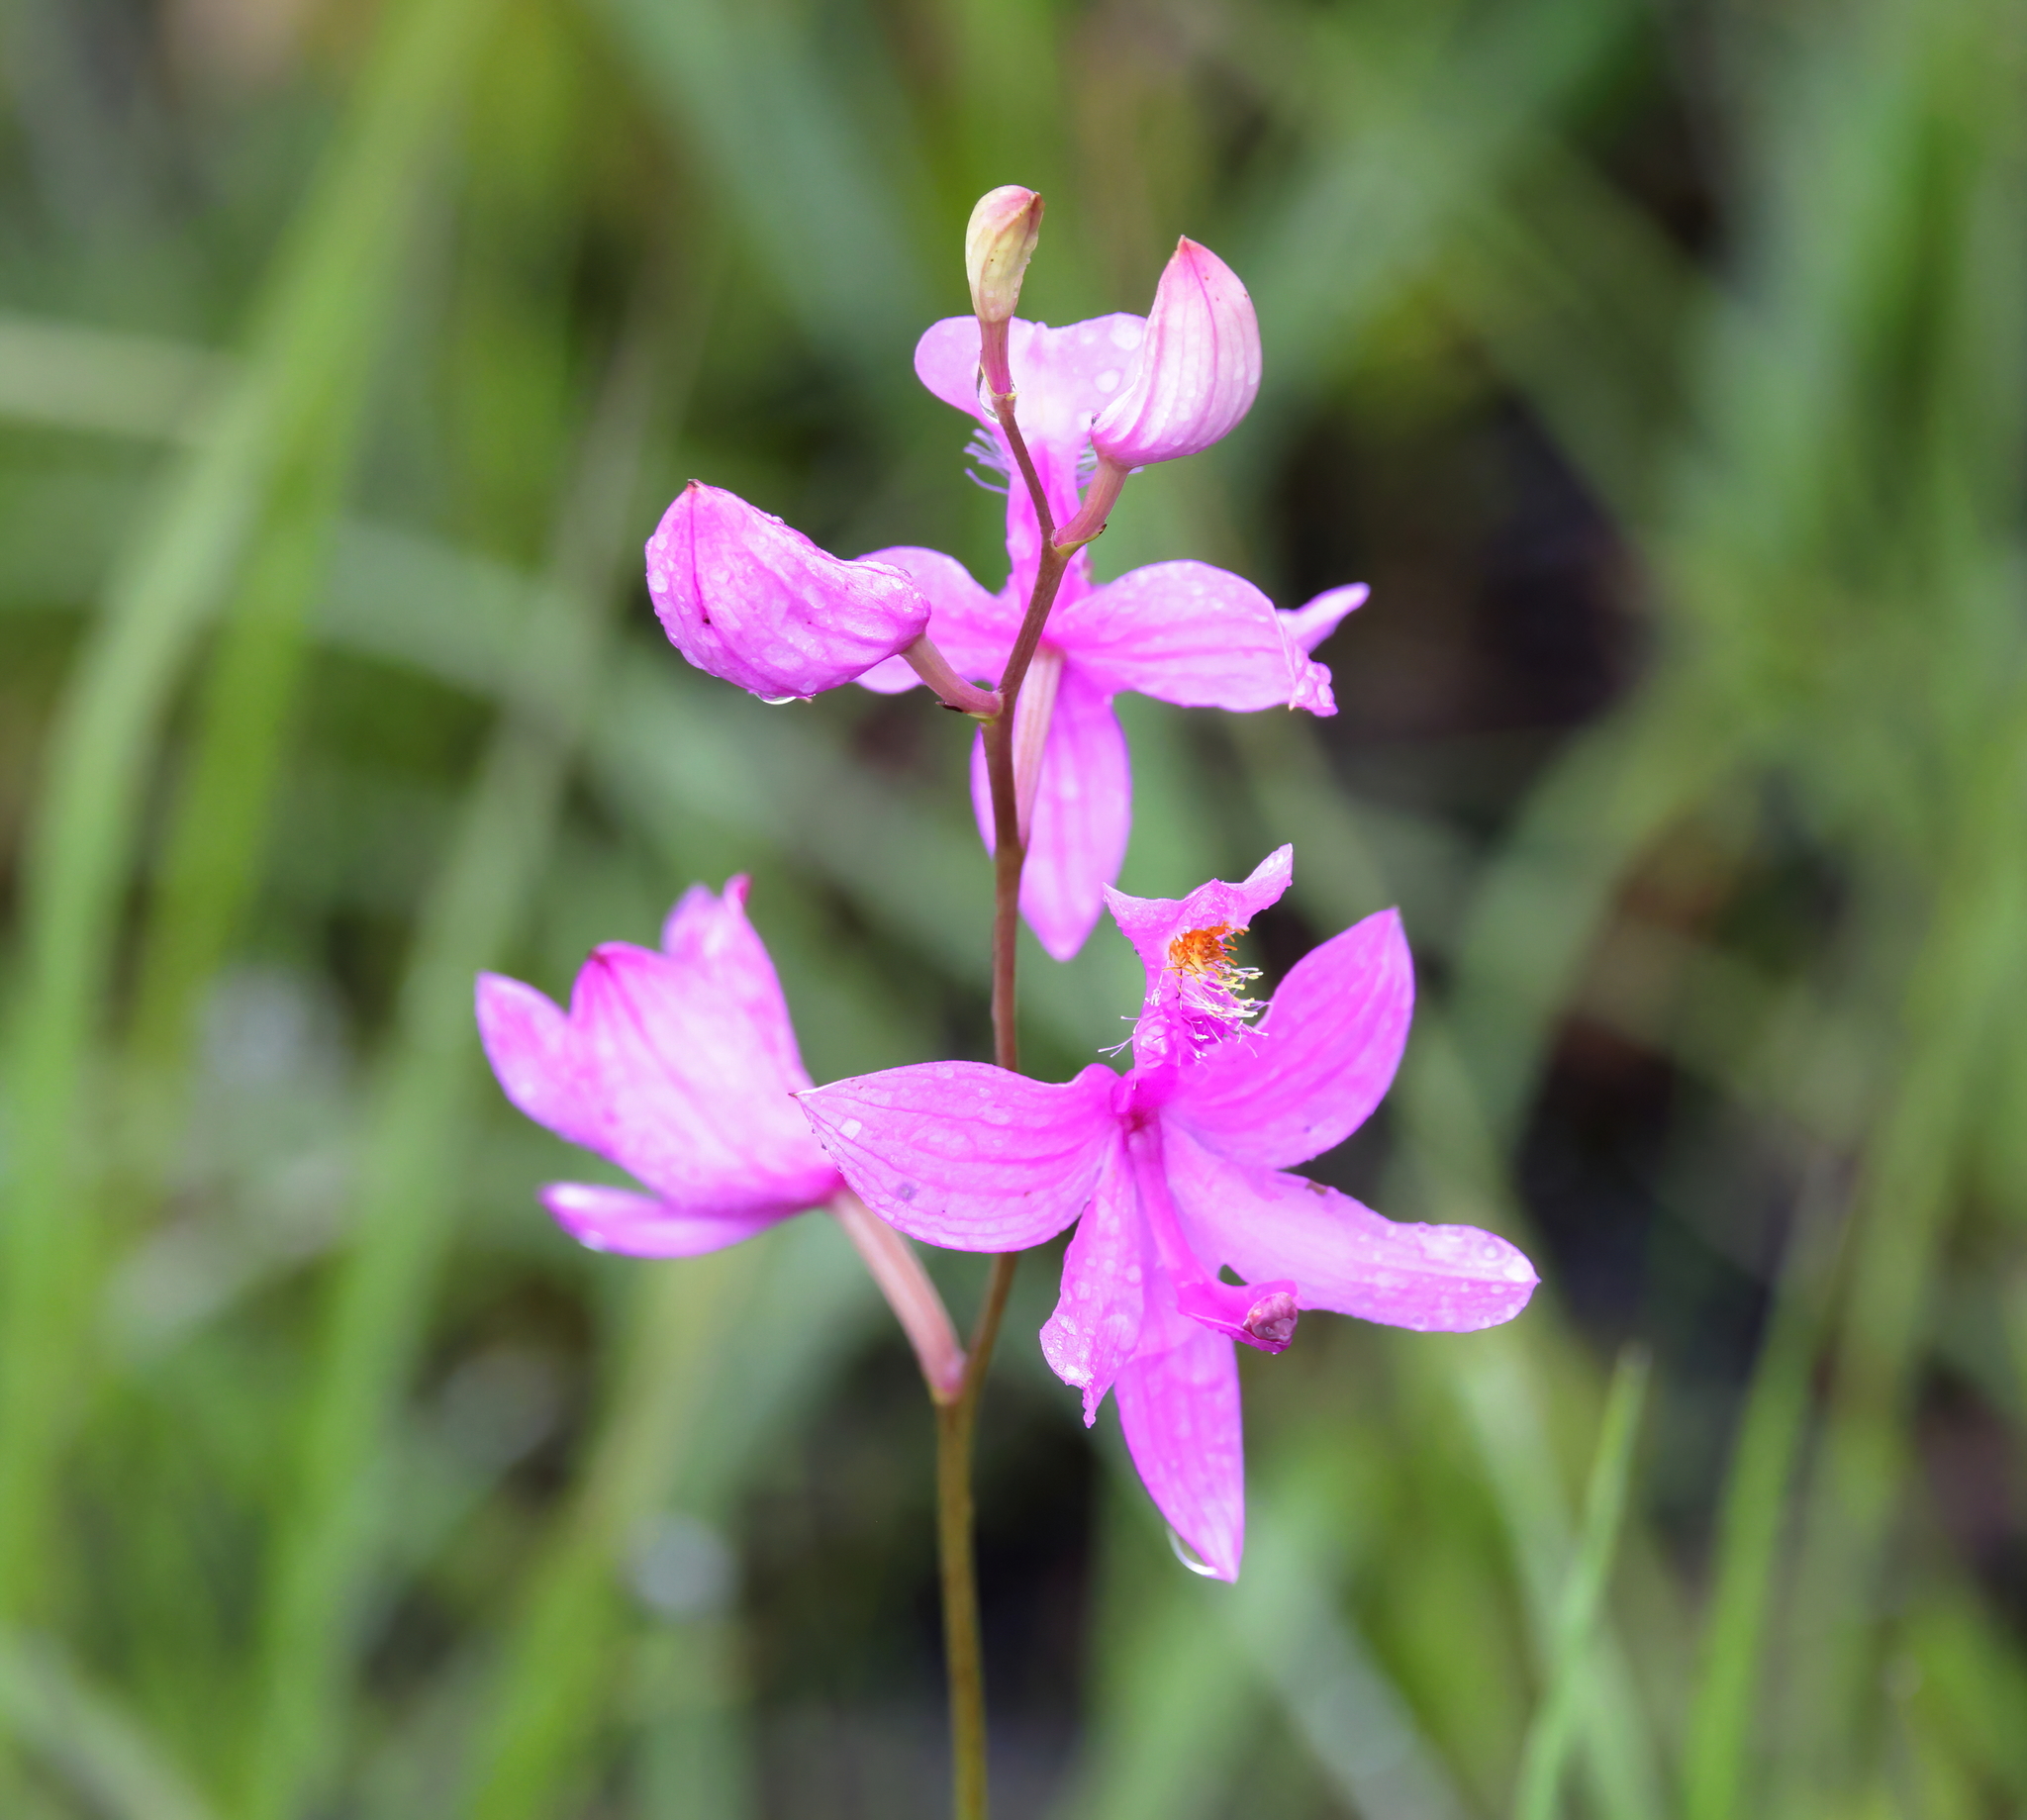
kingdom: Plantae
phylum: Tracheophyta
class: Liliopsida
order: Asparagales
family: Orchidaceae
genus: Calopogon
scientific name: Calopogon tuberosus
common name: Grass-pink
